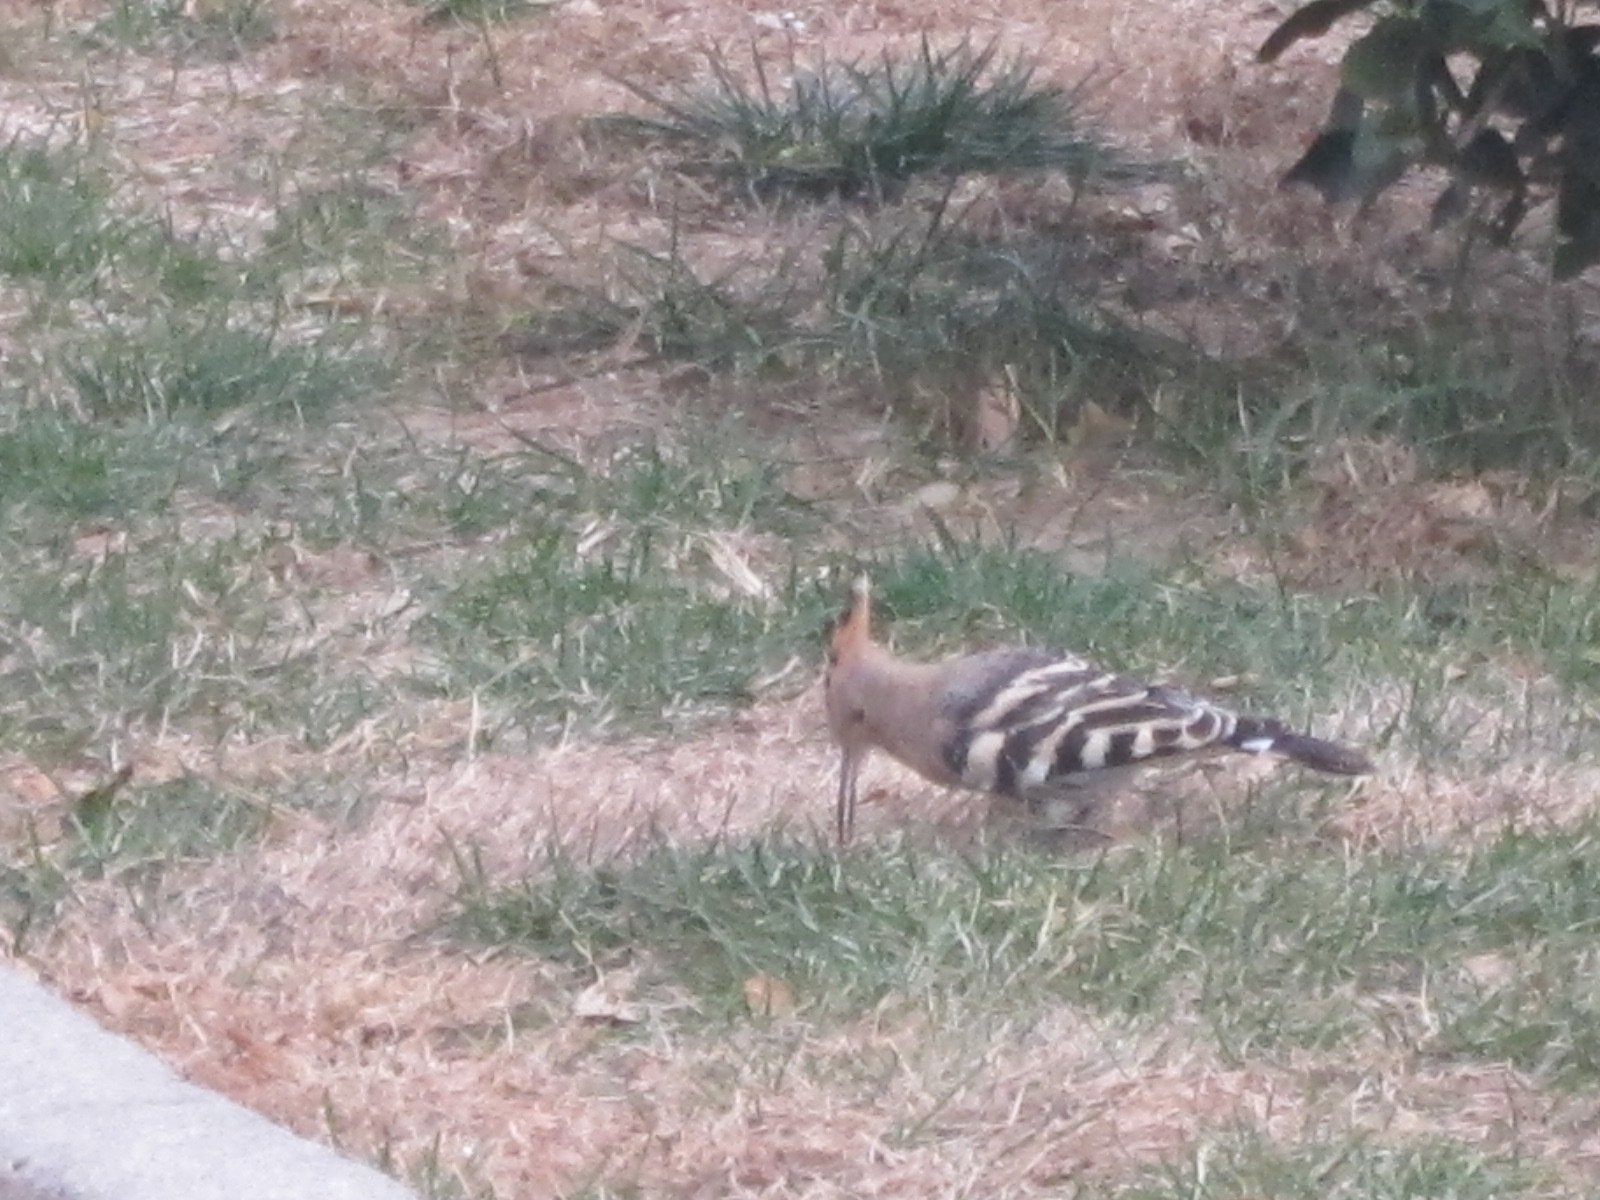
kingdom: Animalia
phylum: Chordata
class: Aves
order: Bucerotiformes
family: Upupidae
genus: Upupa
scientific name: Upupa epops
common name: Eurasian hoopoe
